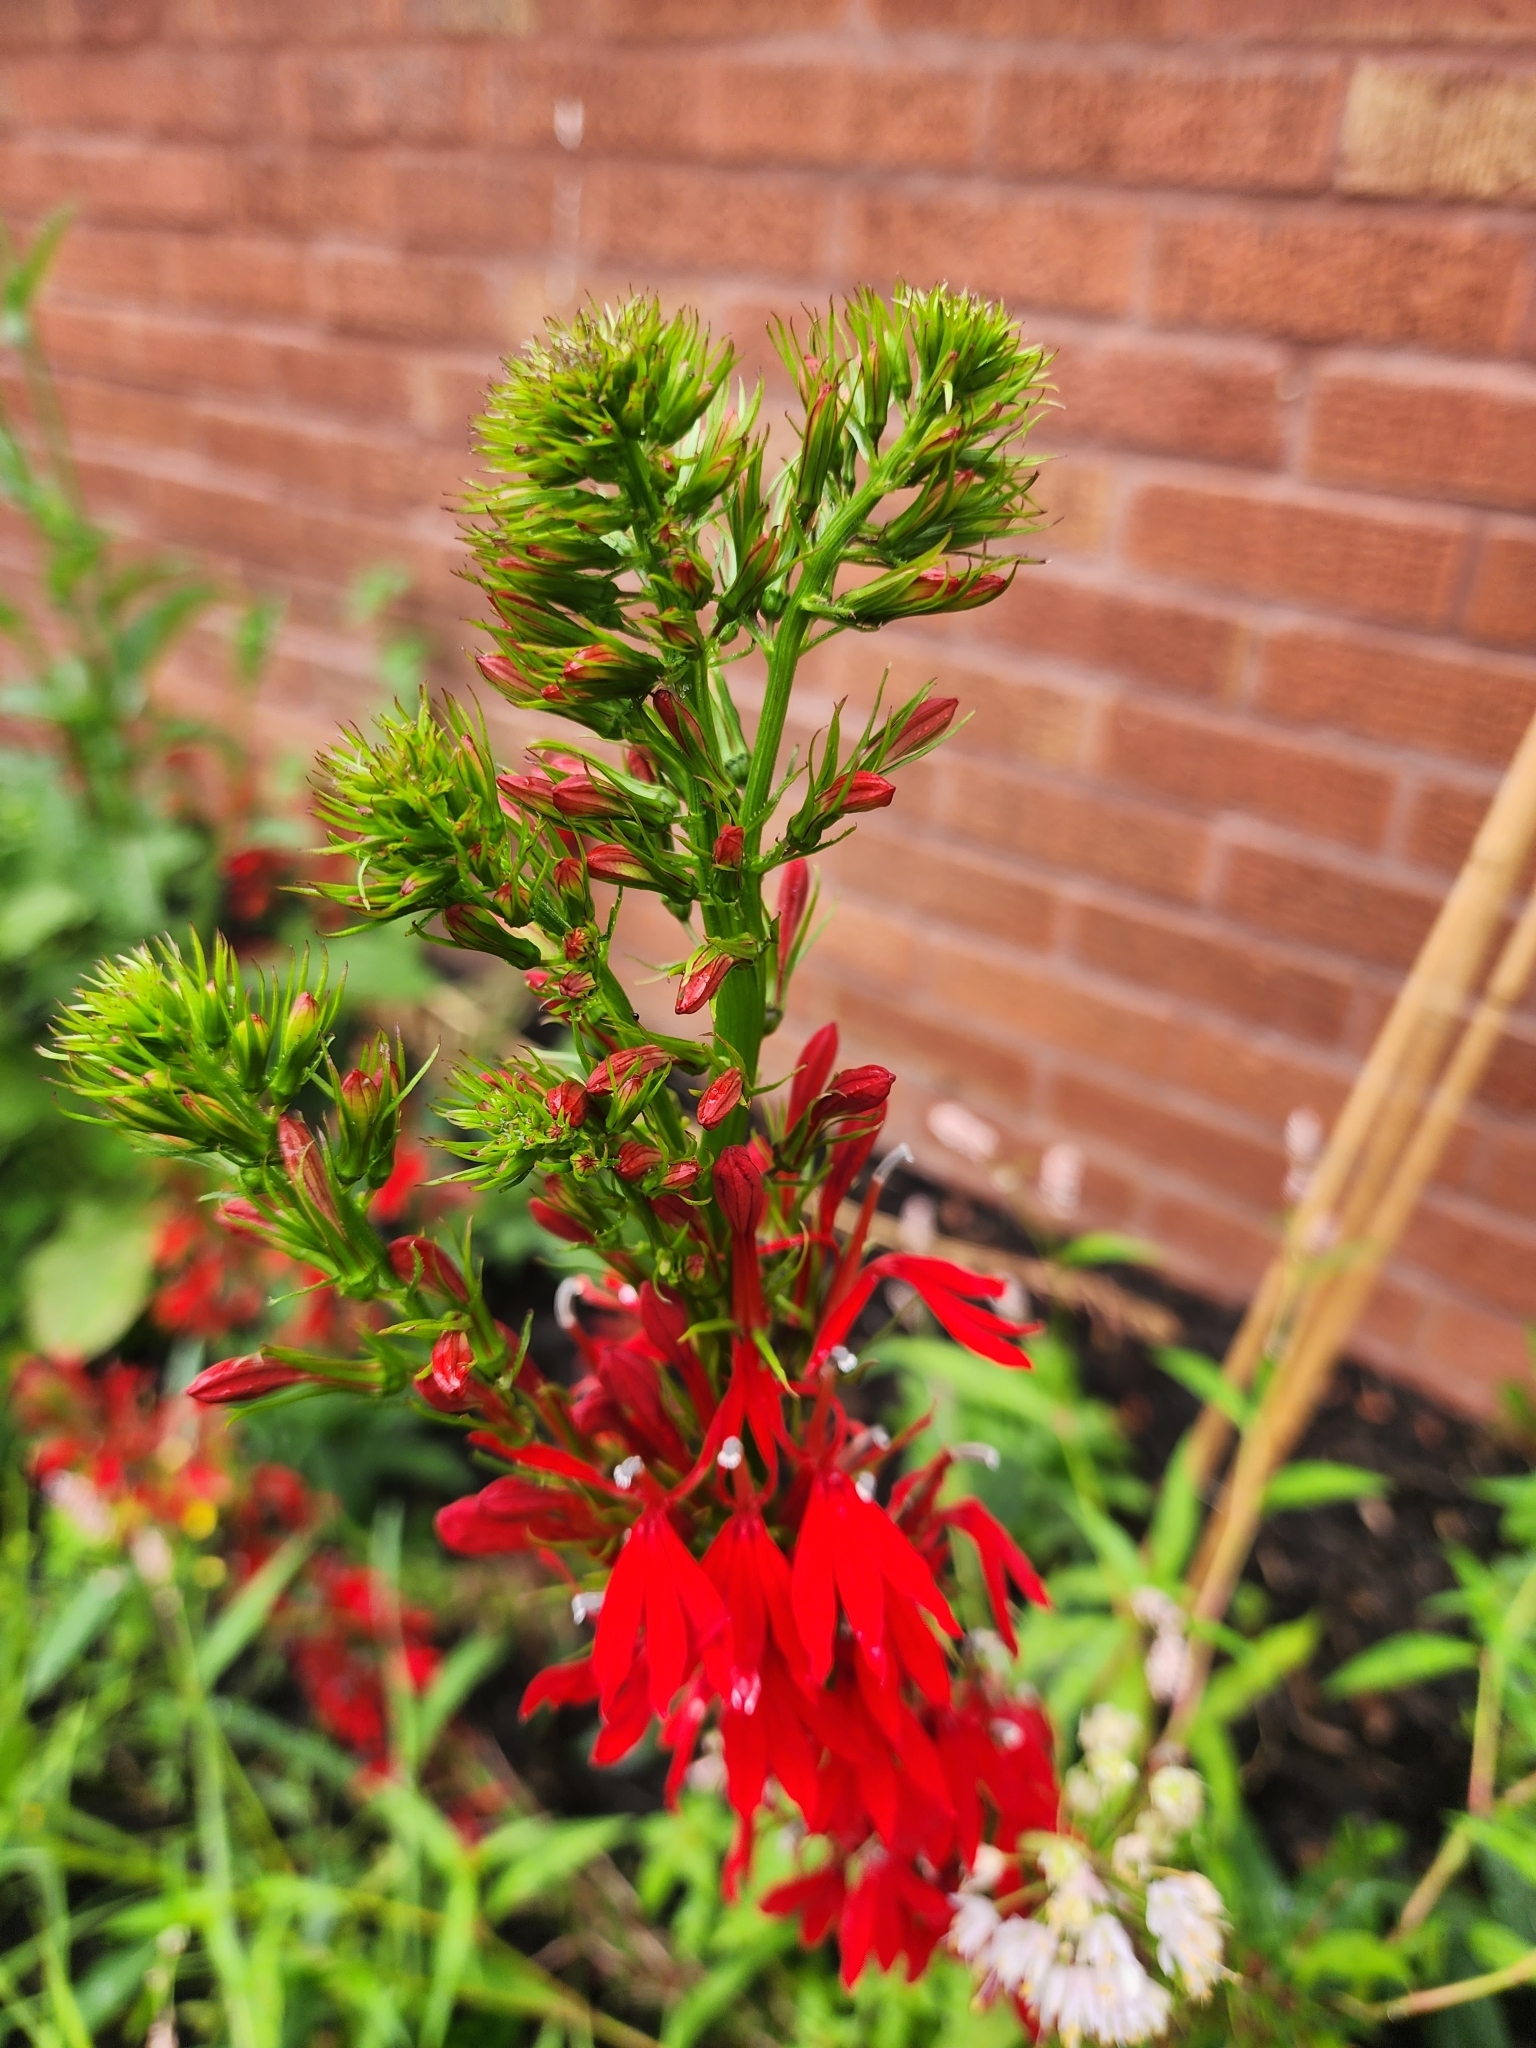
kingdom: Plantae
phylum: Tracheophyta
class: Magnoliopsida
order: Asterales
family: Campanulaceae
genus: Lobelia
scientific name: Lobelia cardinalis
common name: Cardinal flower
